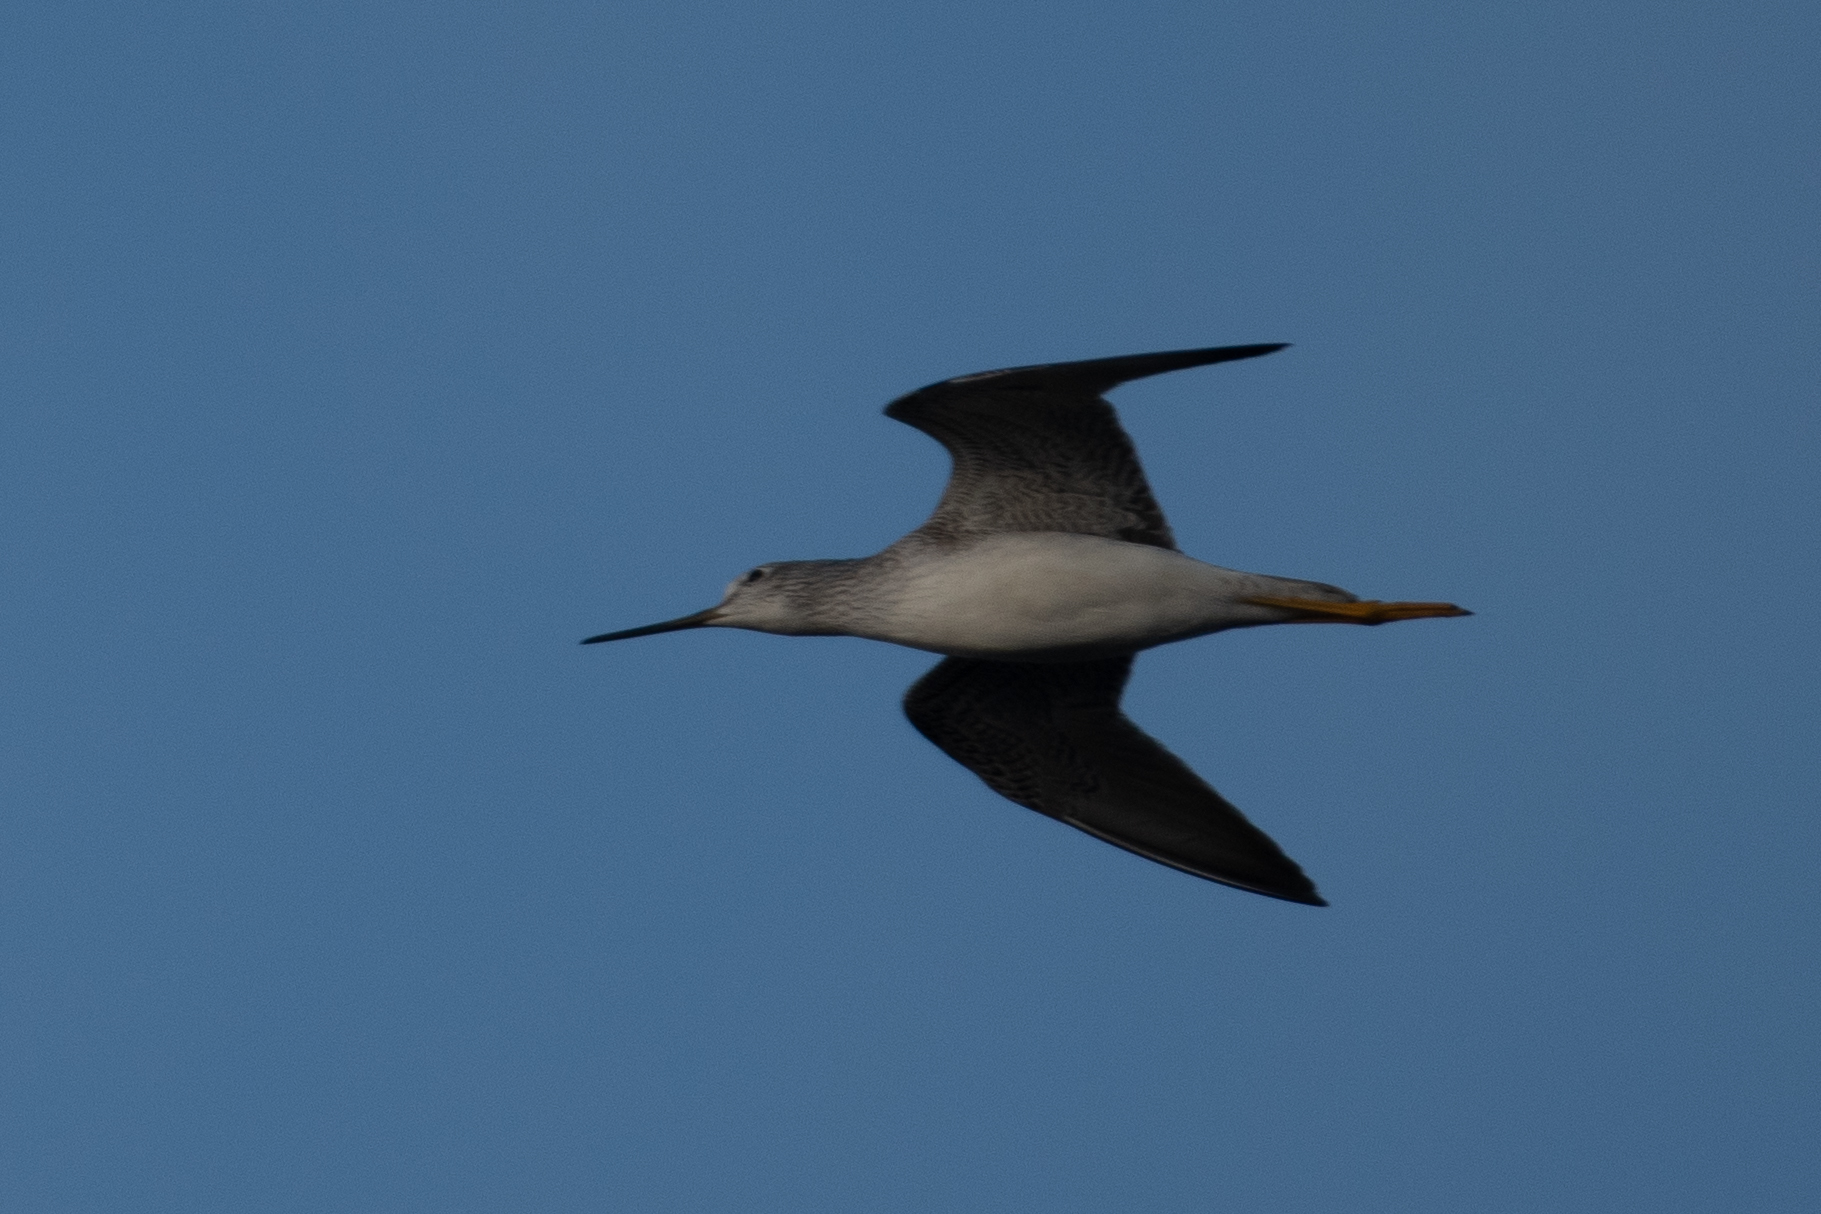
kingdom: Animalia
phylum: Chordata
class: Aves
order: Charadriiformes
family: Scolopacidae
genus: Tringa
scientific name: Tringa melanoleuca
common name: Greater yellowlegs
